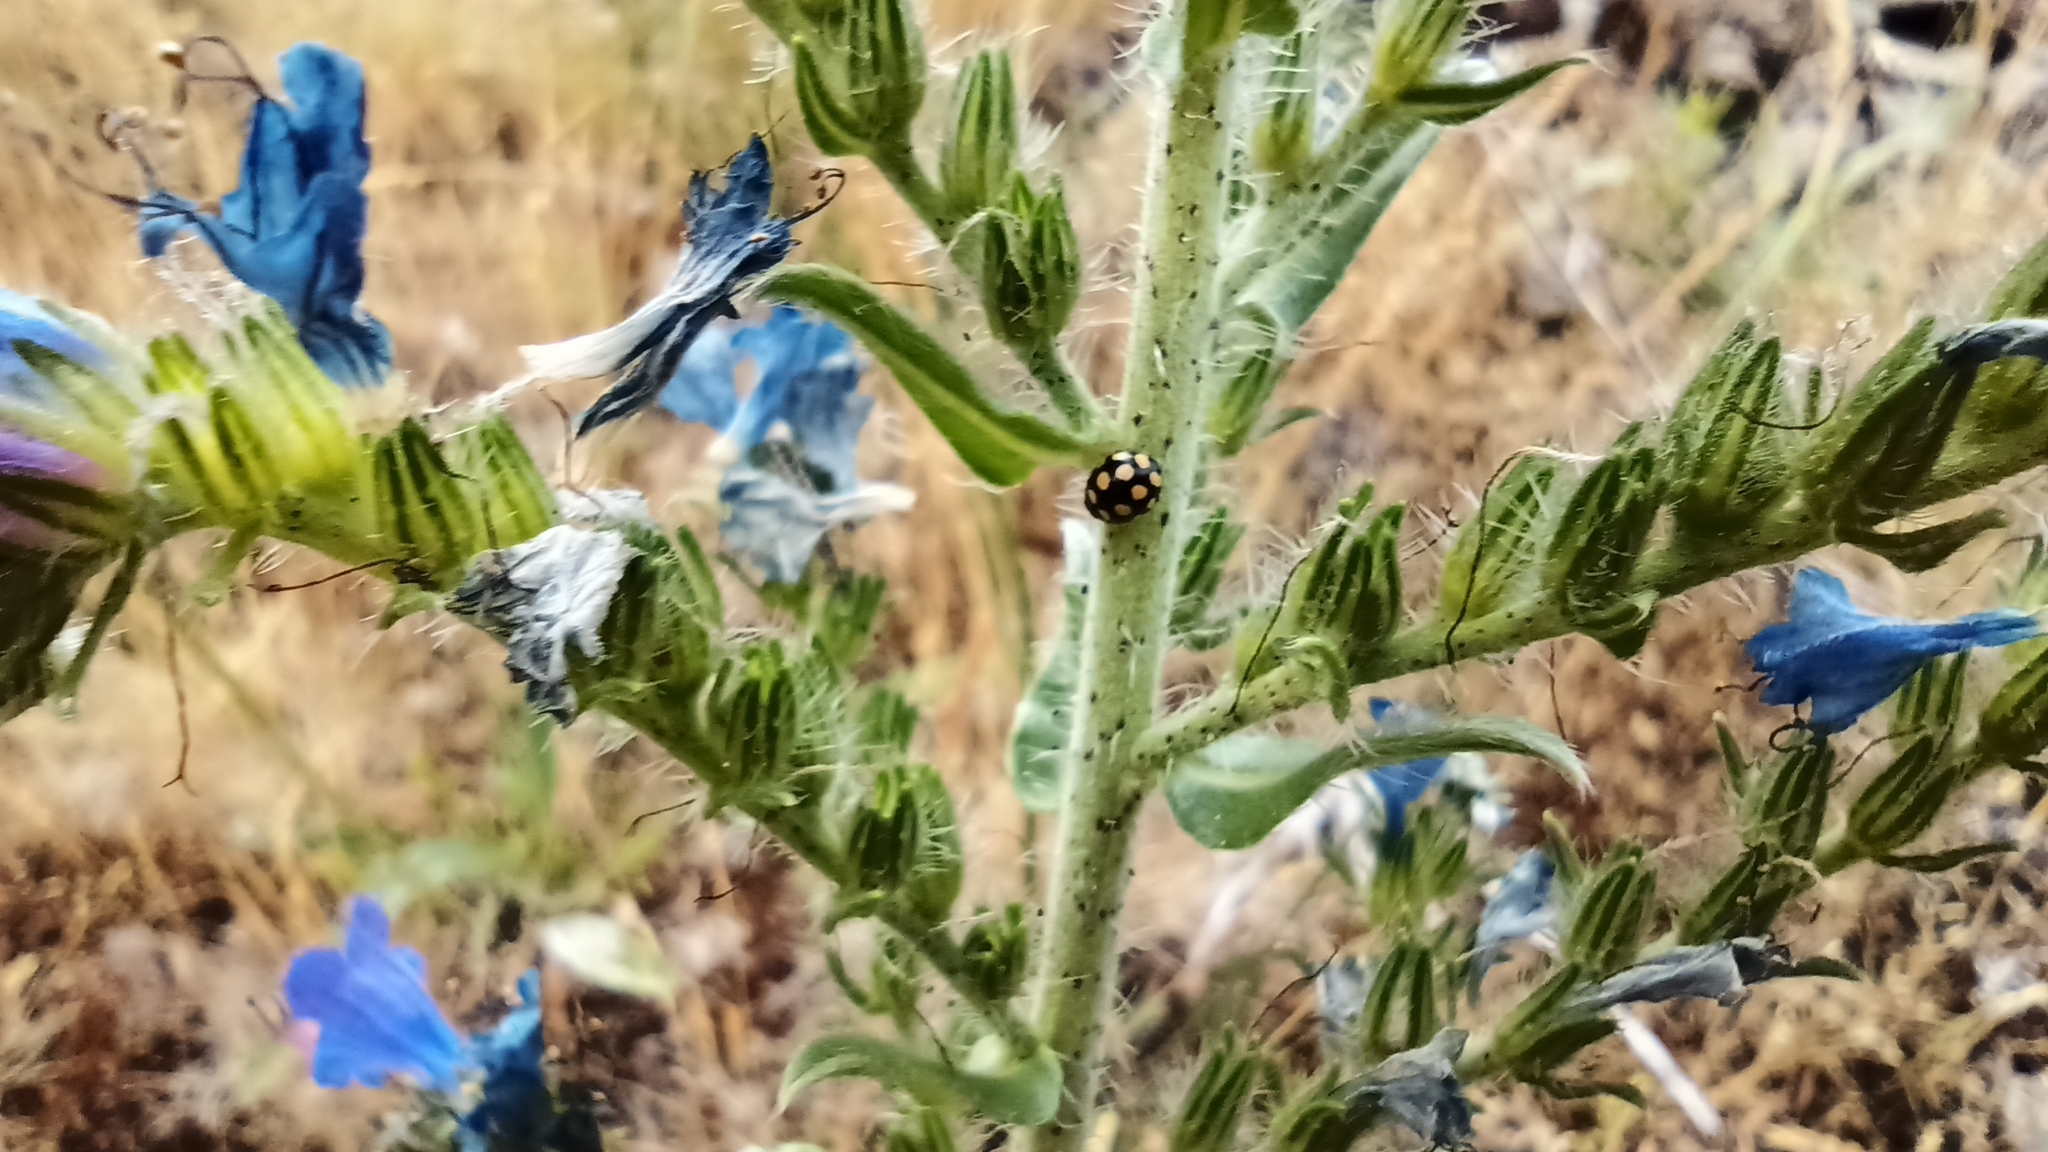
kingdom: Animalia
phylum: Arthropoda
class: Insecta
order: Coleoptera
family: Coccinellidae
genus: Coccinula
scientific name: Coccinula quatuordecimpustulata
